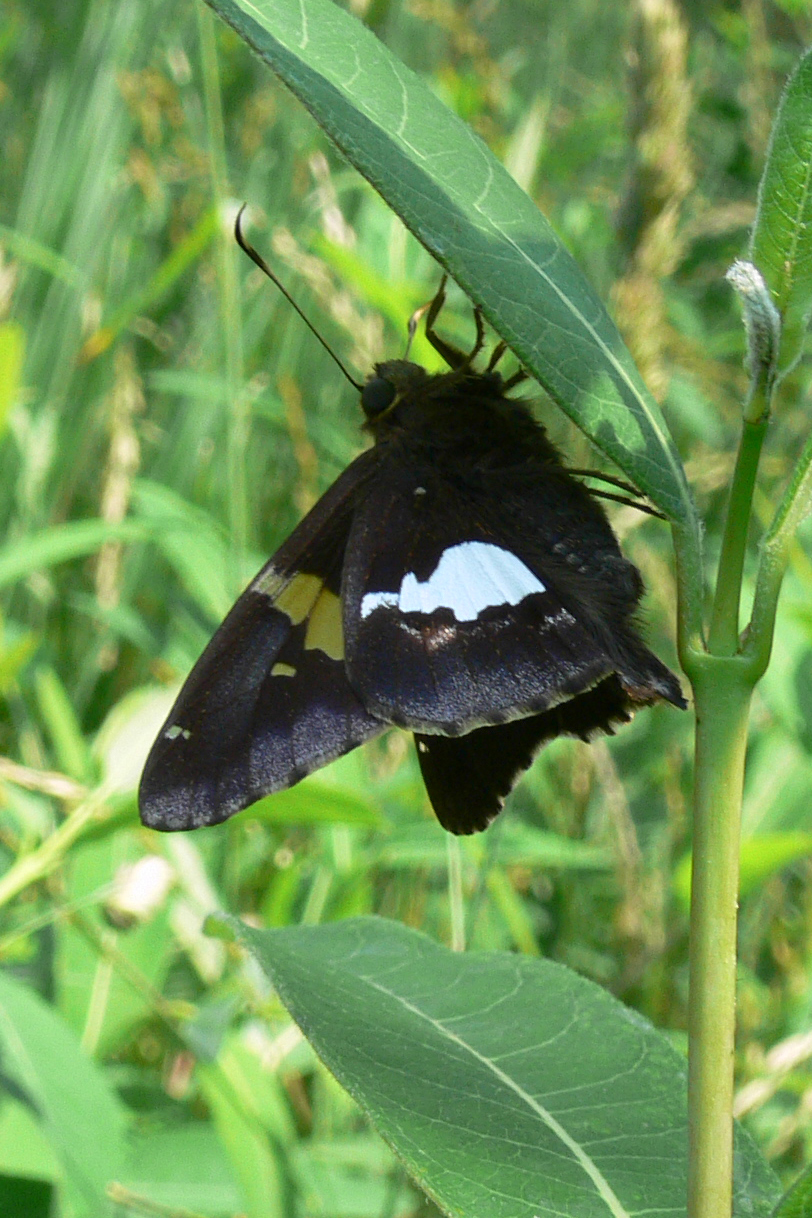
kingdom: Animalia
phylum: Arthropoda
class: Insecta
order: Lepidoptera
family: Hesperiidae
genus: Epargyreus
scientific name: Epargyreus clarus
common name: Silver-spotted skipper
